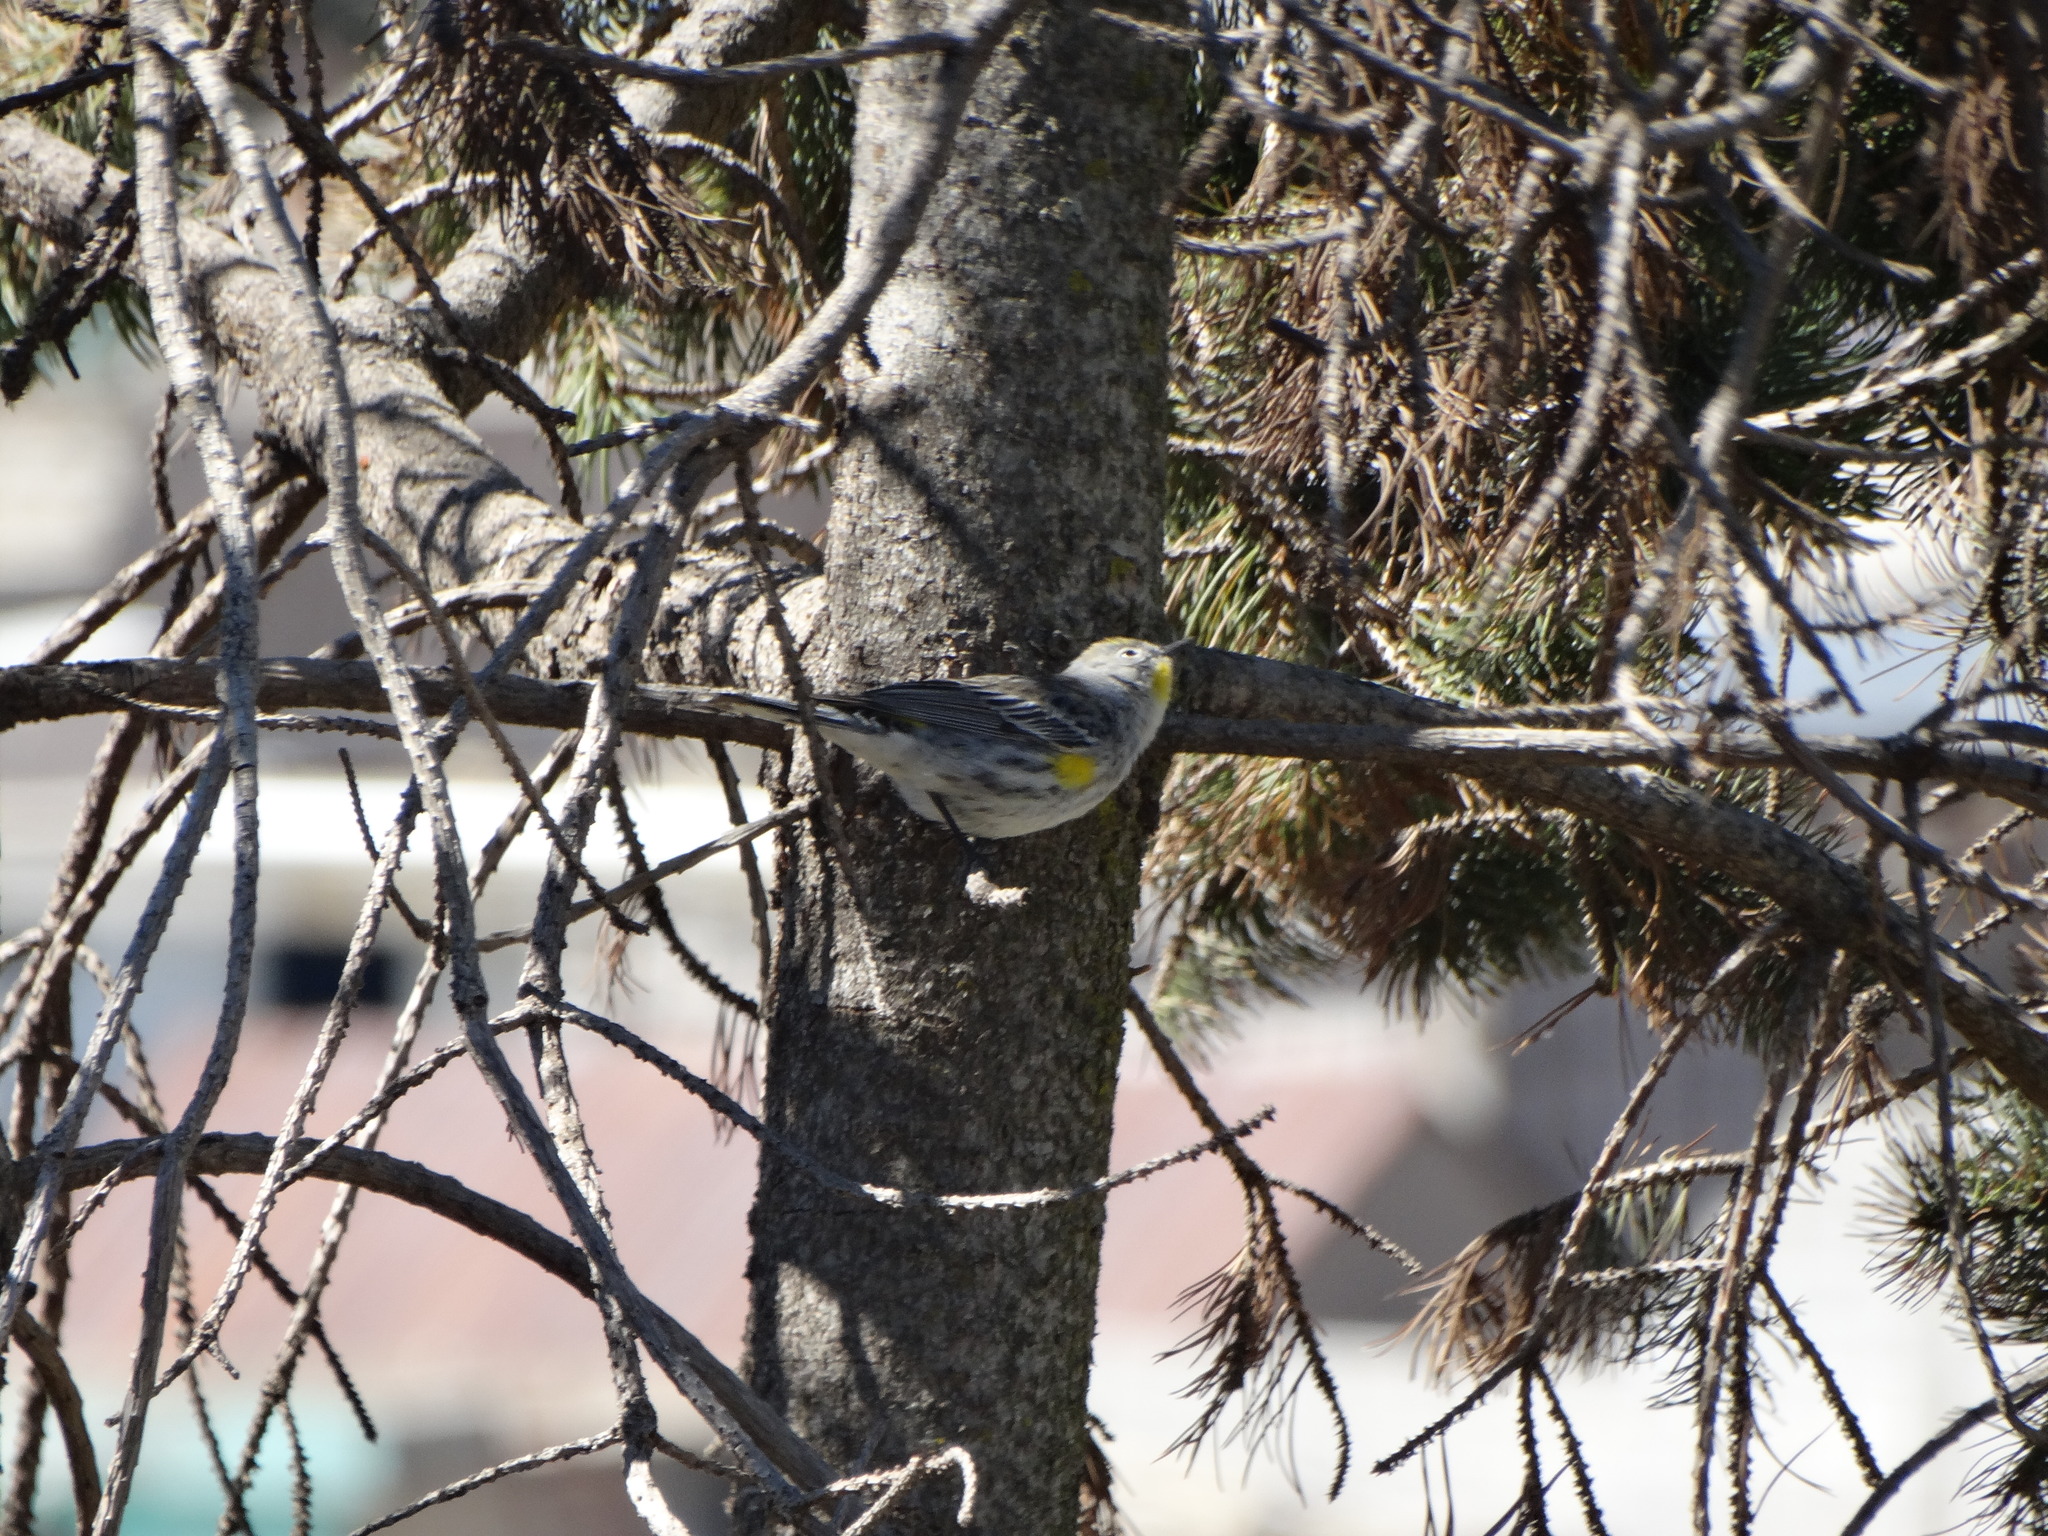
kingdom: Animalia
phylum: Chordata
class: Aves
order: Passeriformes
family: Parulidae
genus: Setophaga
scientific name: Setophaga coronata
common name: Myrtle warbler
